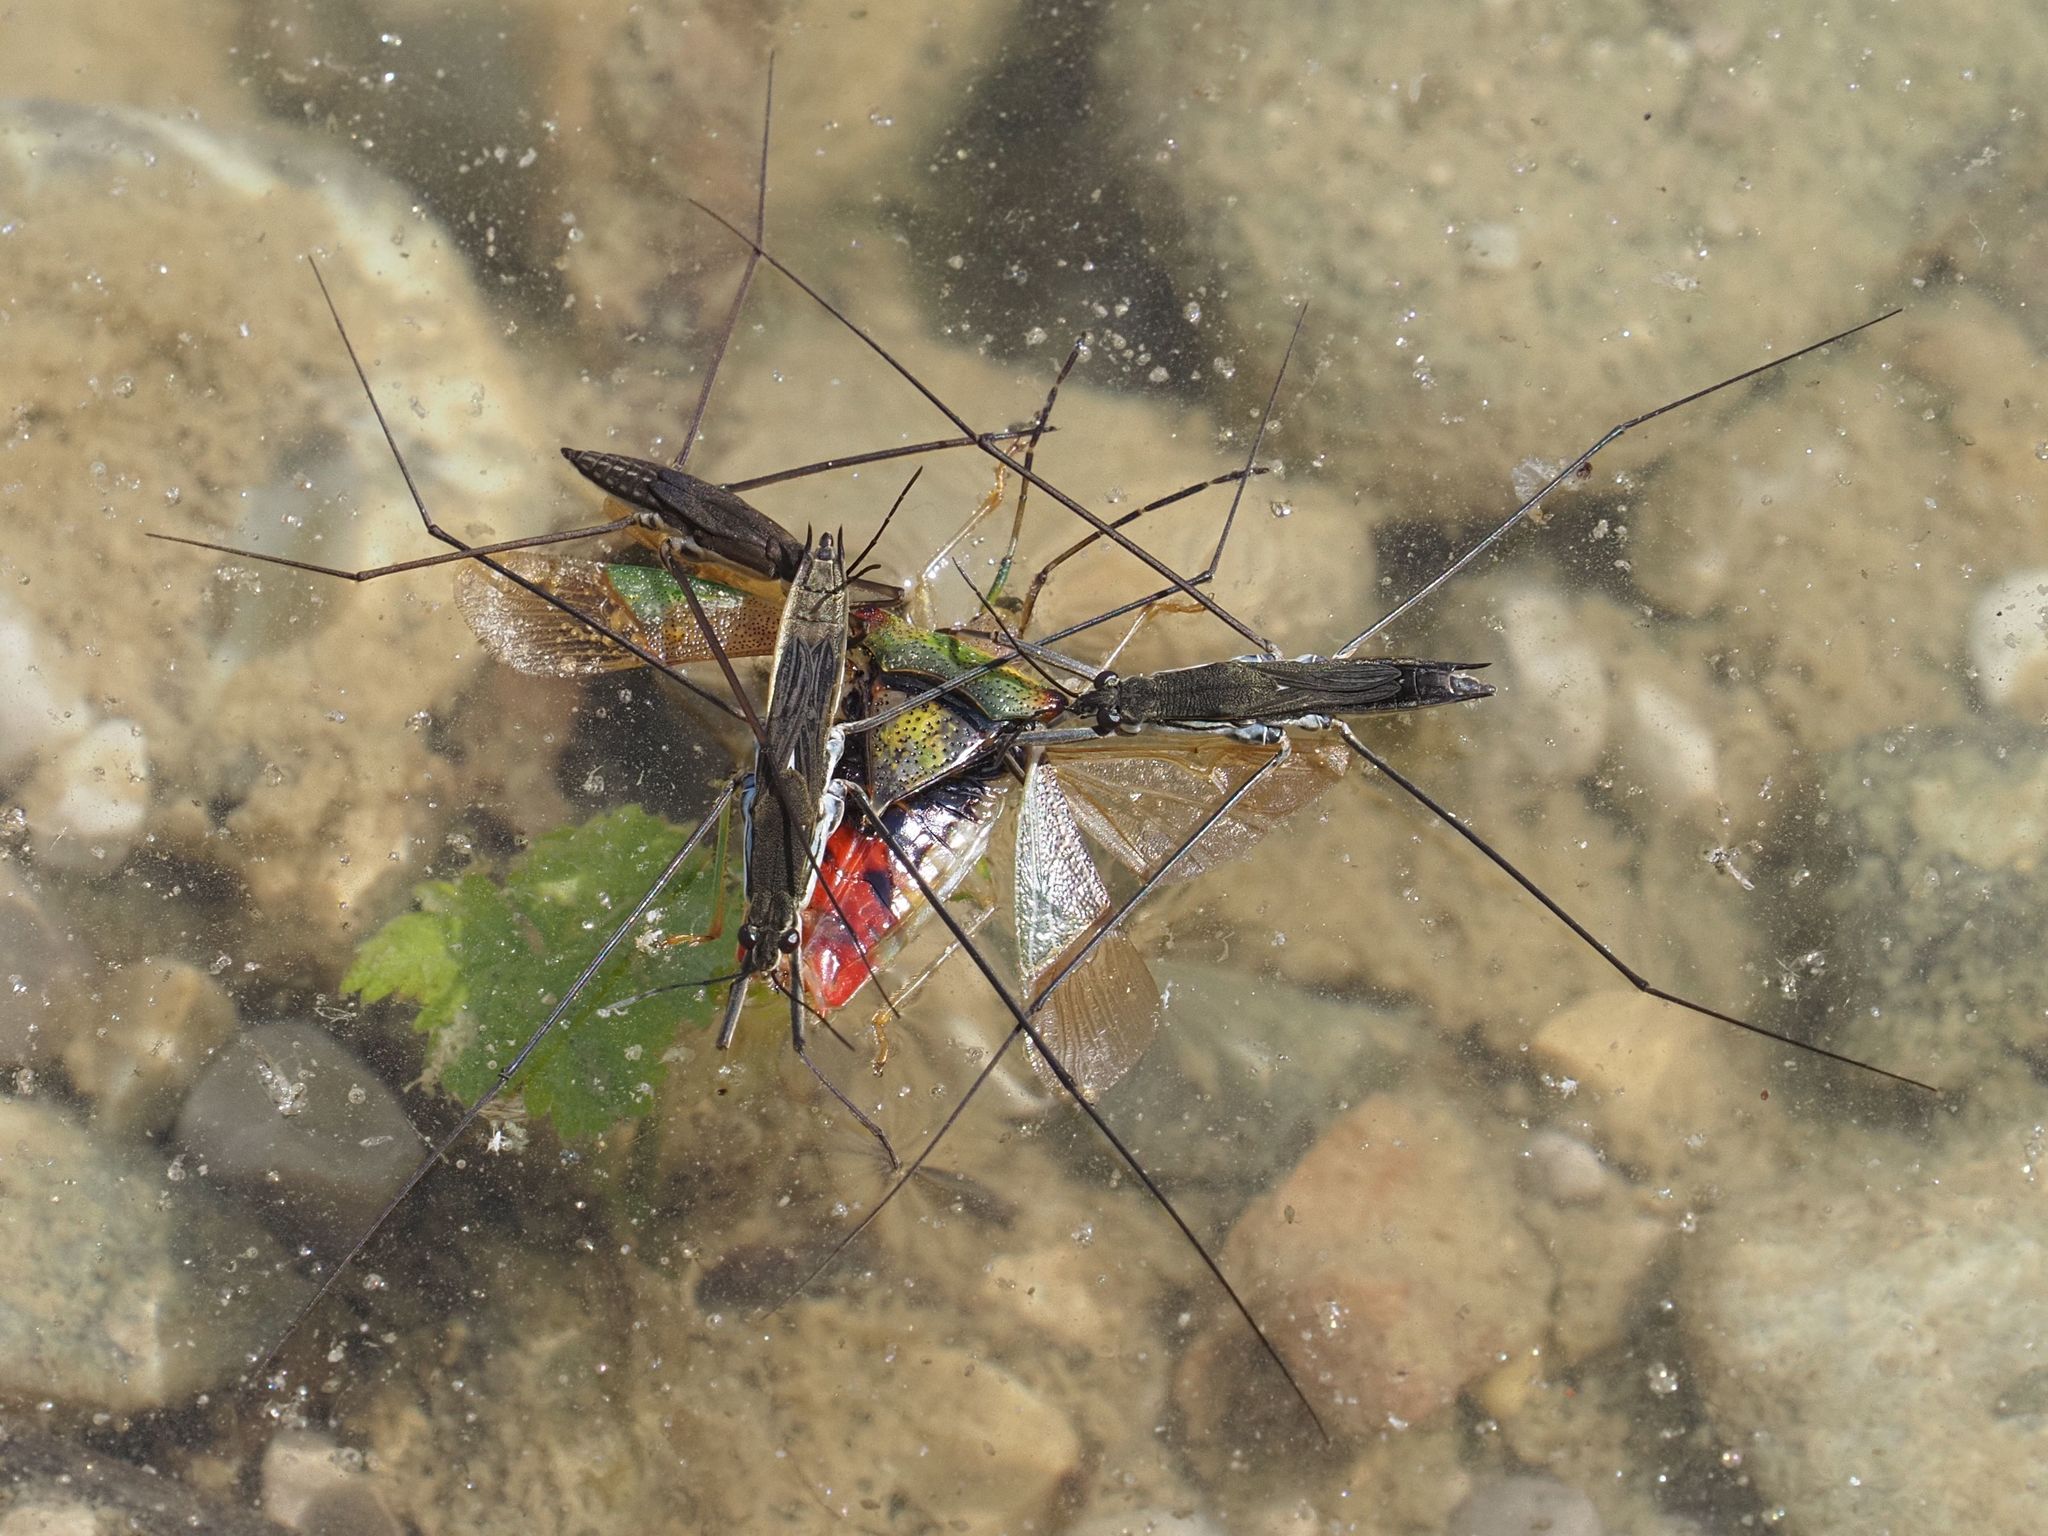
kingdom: Animalia
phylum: Arthropoda
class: Insecta
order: Hemiptera
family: Gerridae
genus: Aquarius
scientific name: Aquarius paludum
